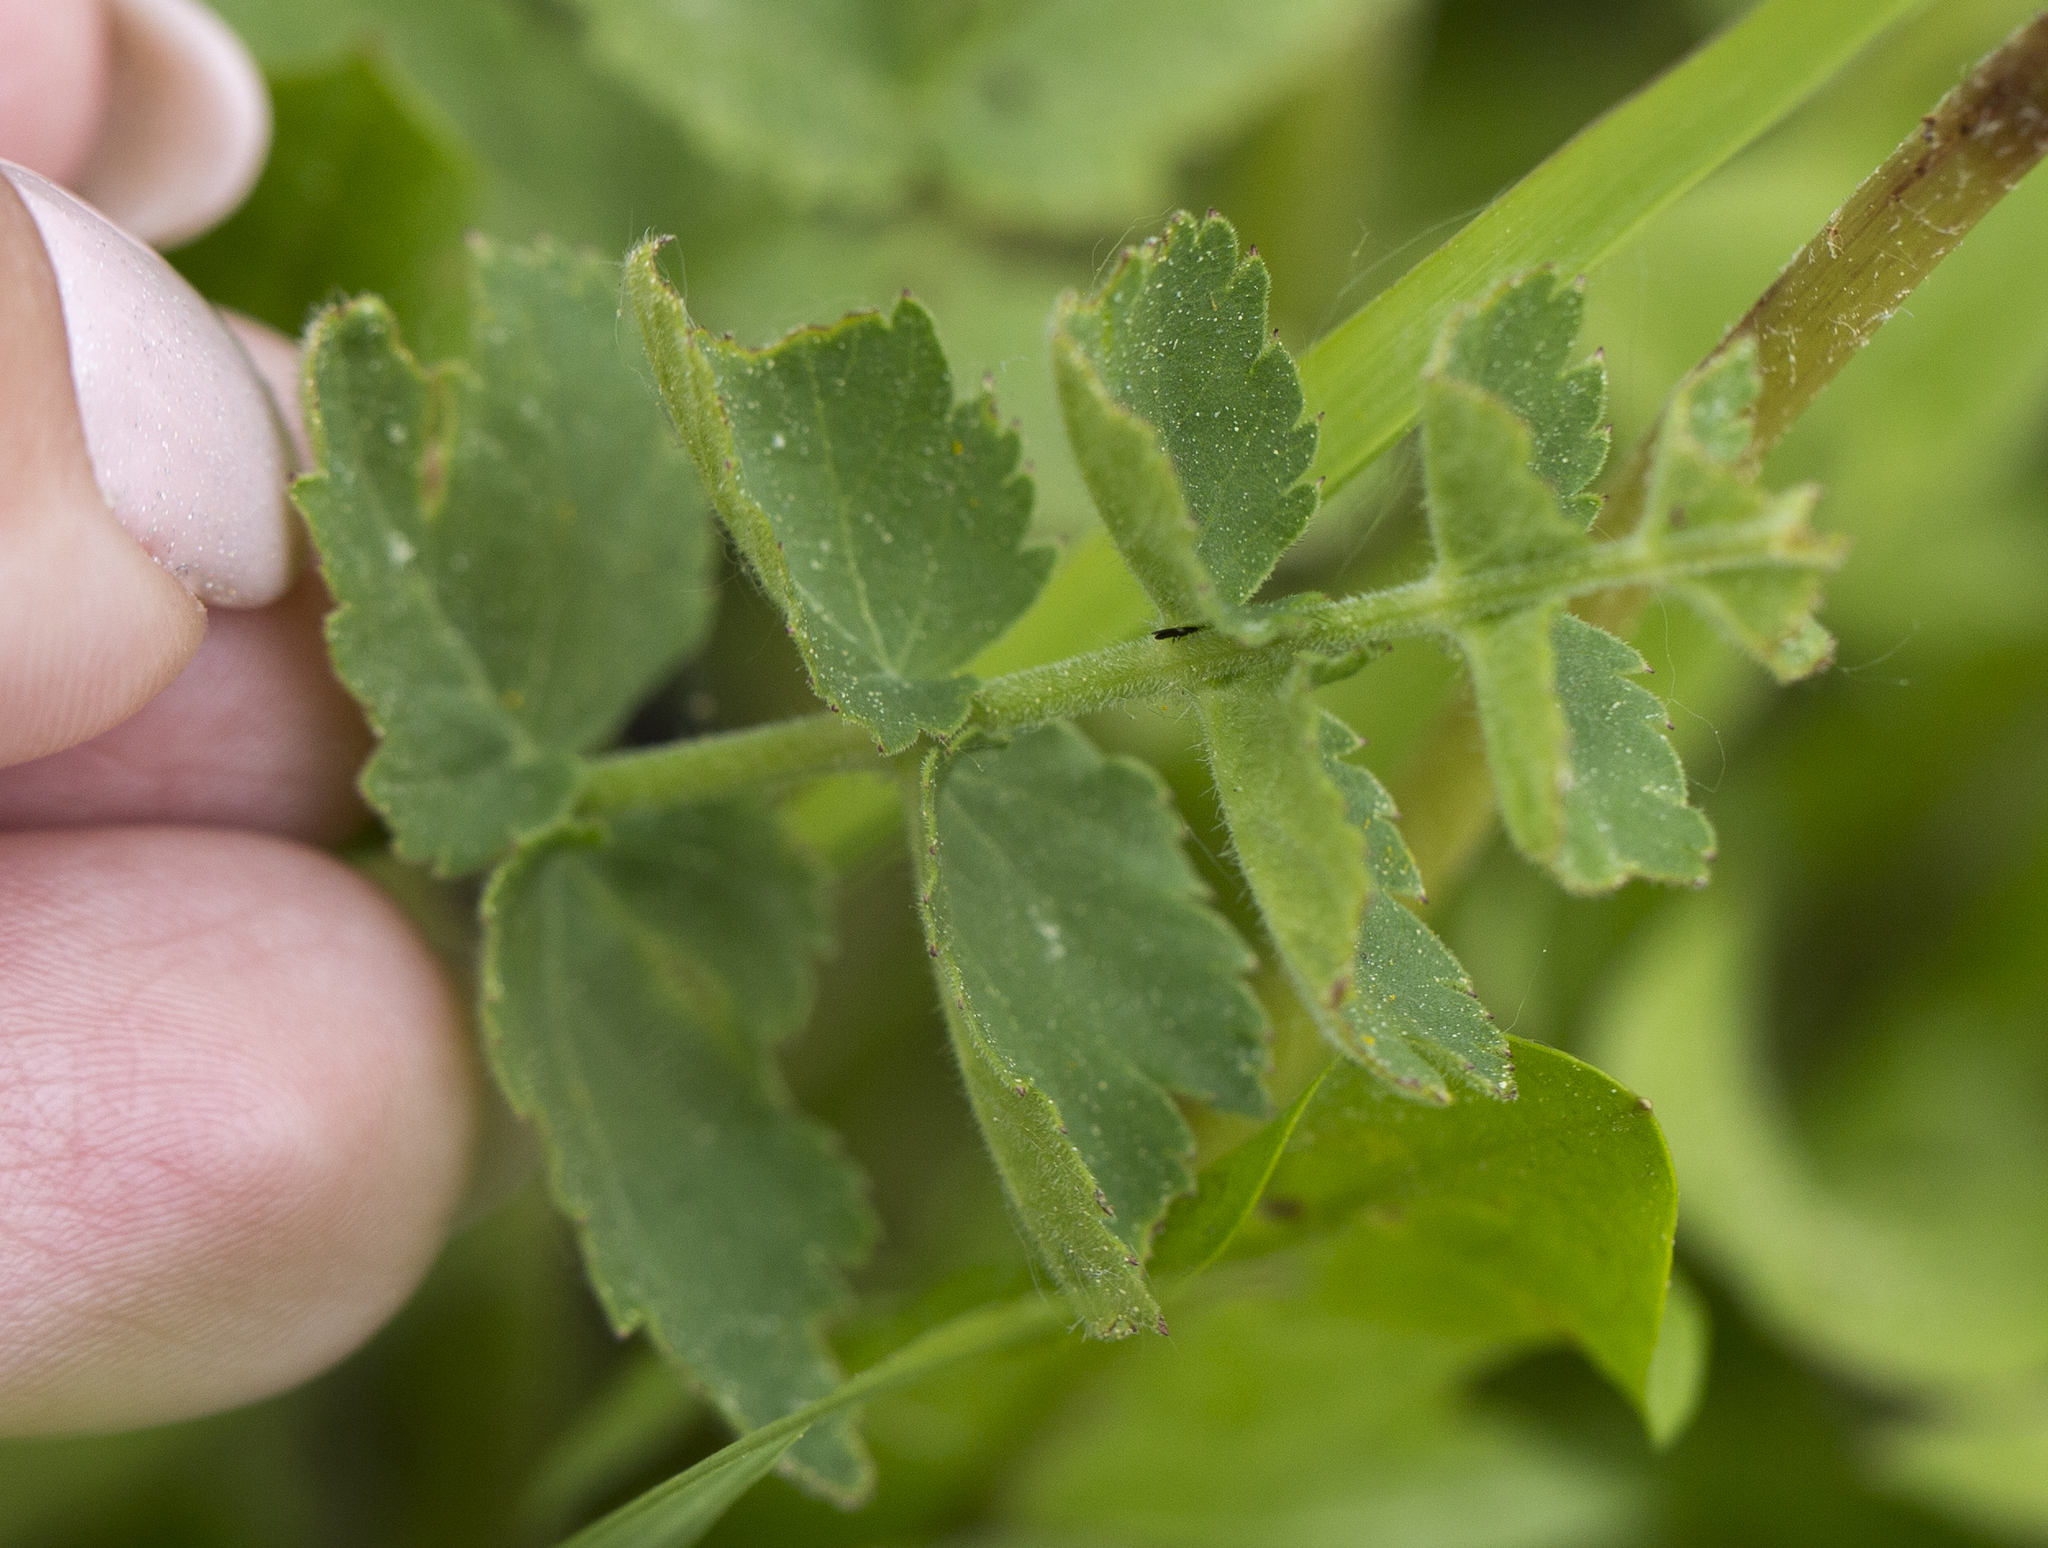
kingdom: Plantae
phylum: Tracheophyta
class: Magnoliopsida
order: Apiales
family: Apiaceae
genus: Pimpinella
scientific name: Pimpinella saxifraga
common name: Burnet-saxifrage
